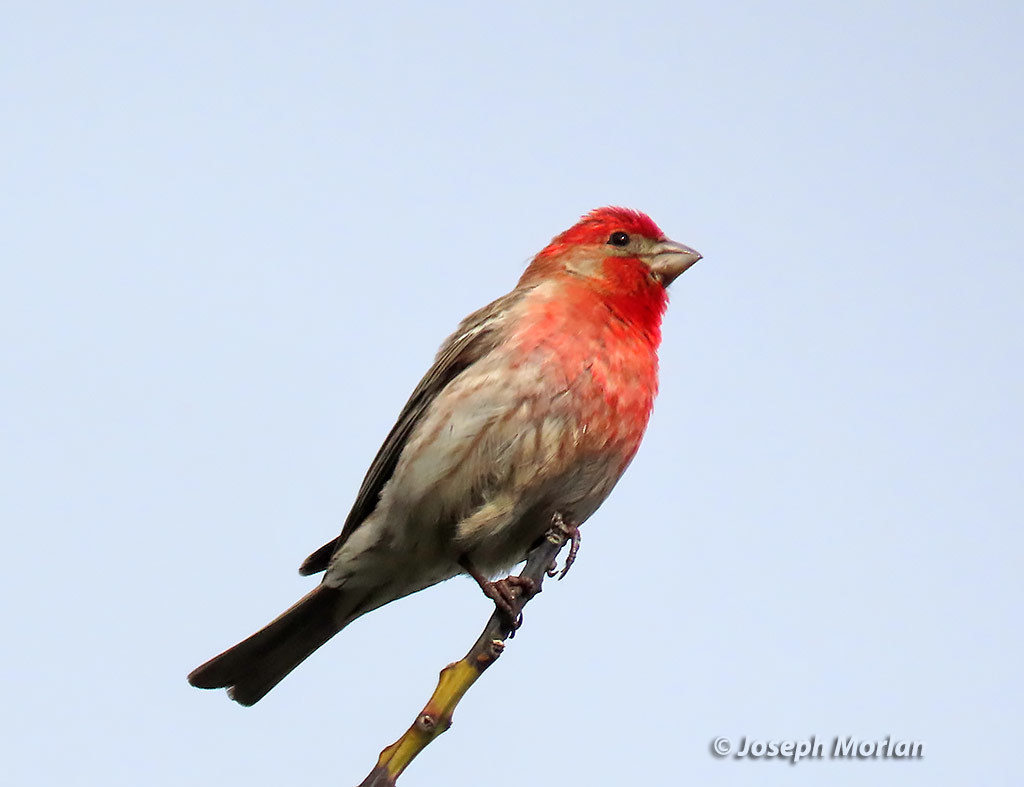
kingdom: Animalia
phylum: Chordata
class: Aves
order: Passeriformes
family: Fringillidae
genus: Haemorhous
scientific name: Haemorhous mexicanus
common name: House finch
